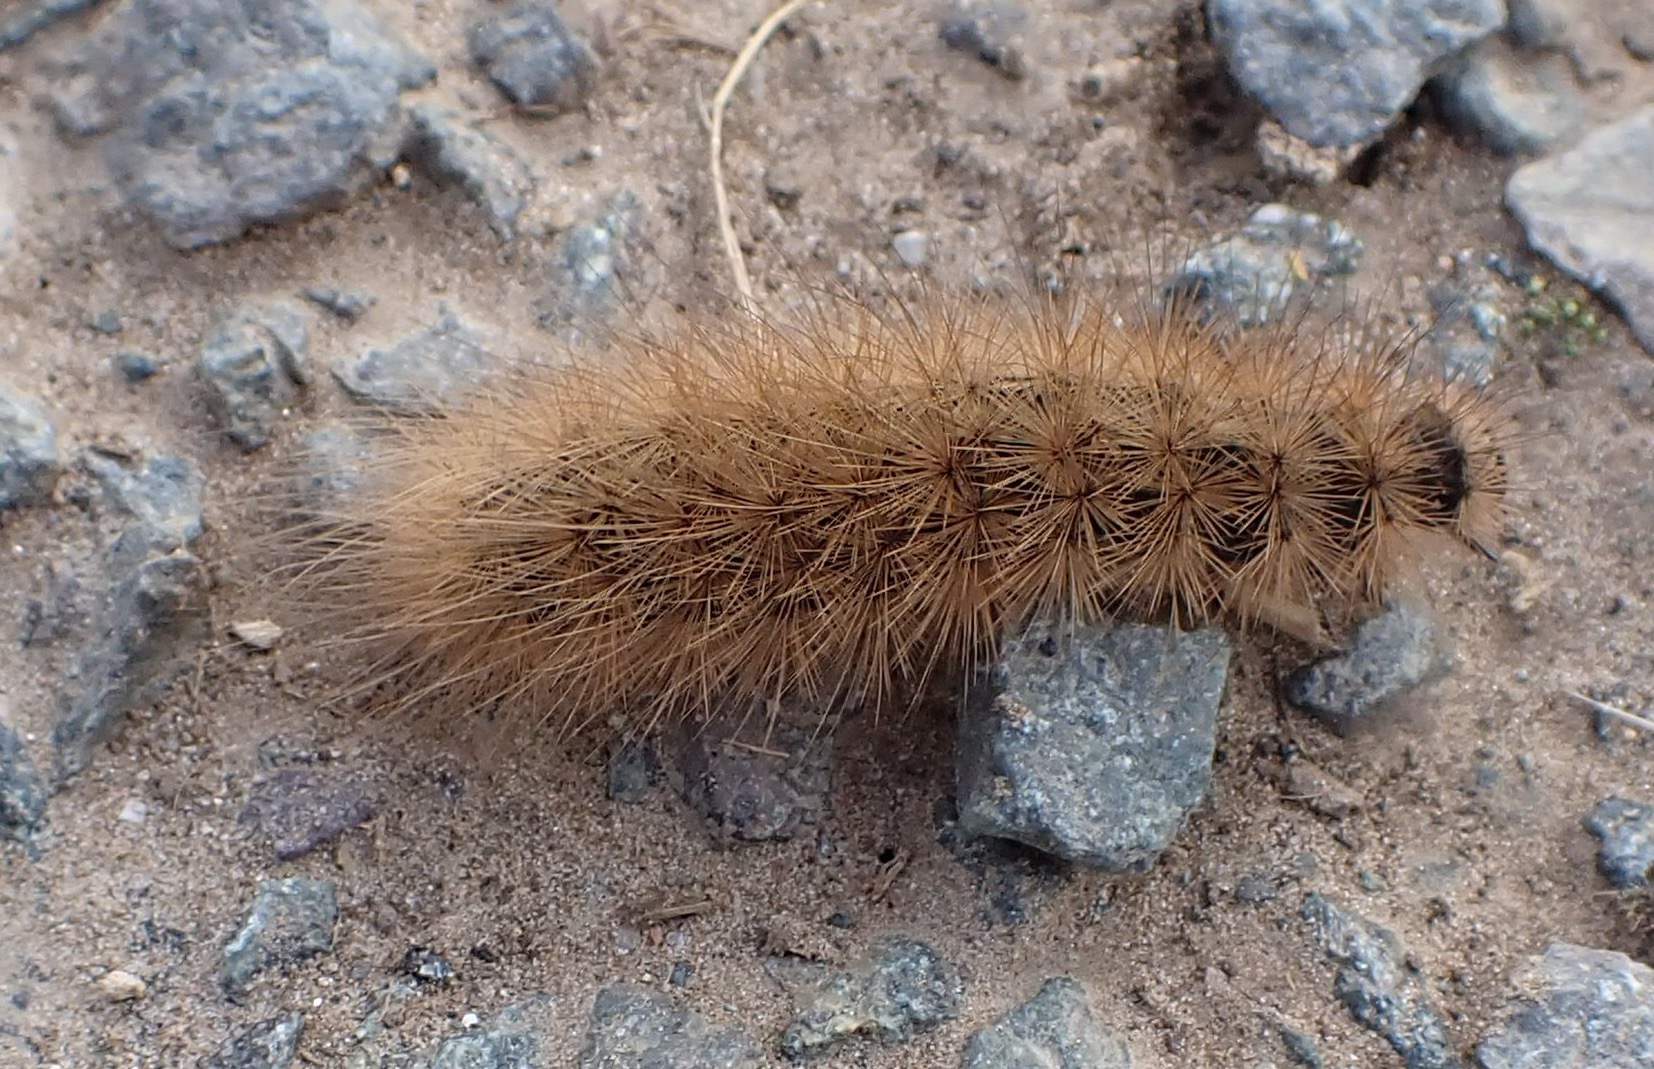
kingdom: Animalia
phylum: Arthropoda
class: Insecta
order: Lepidoptera
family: Erebidae
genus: Phragmatobia
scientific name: Phragmatobia fuliginosa
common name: Ruby tiger
